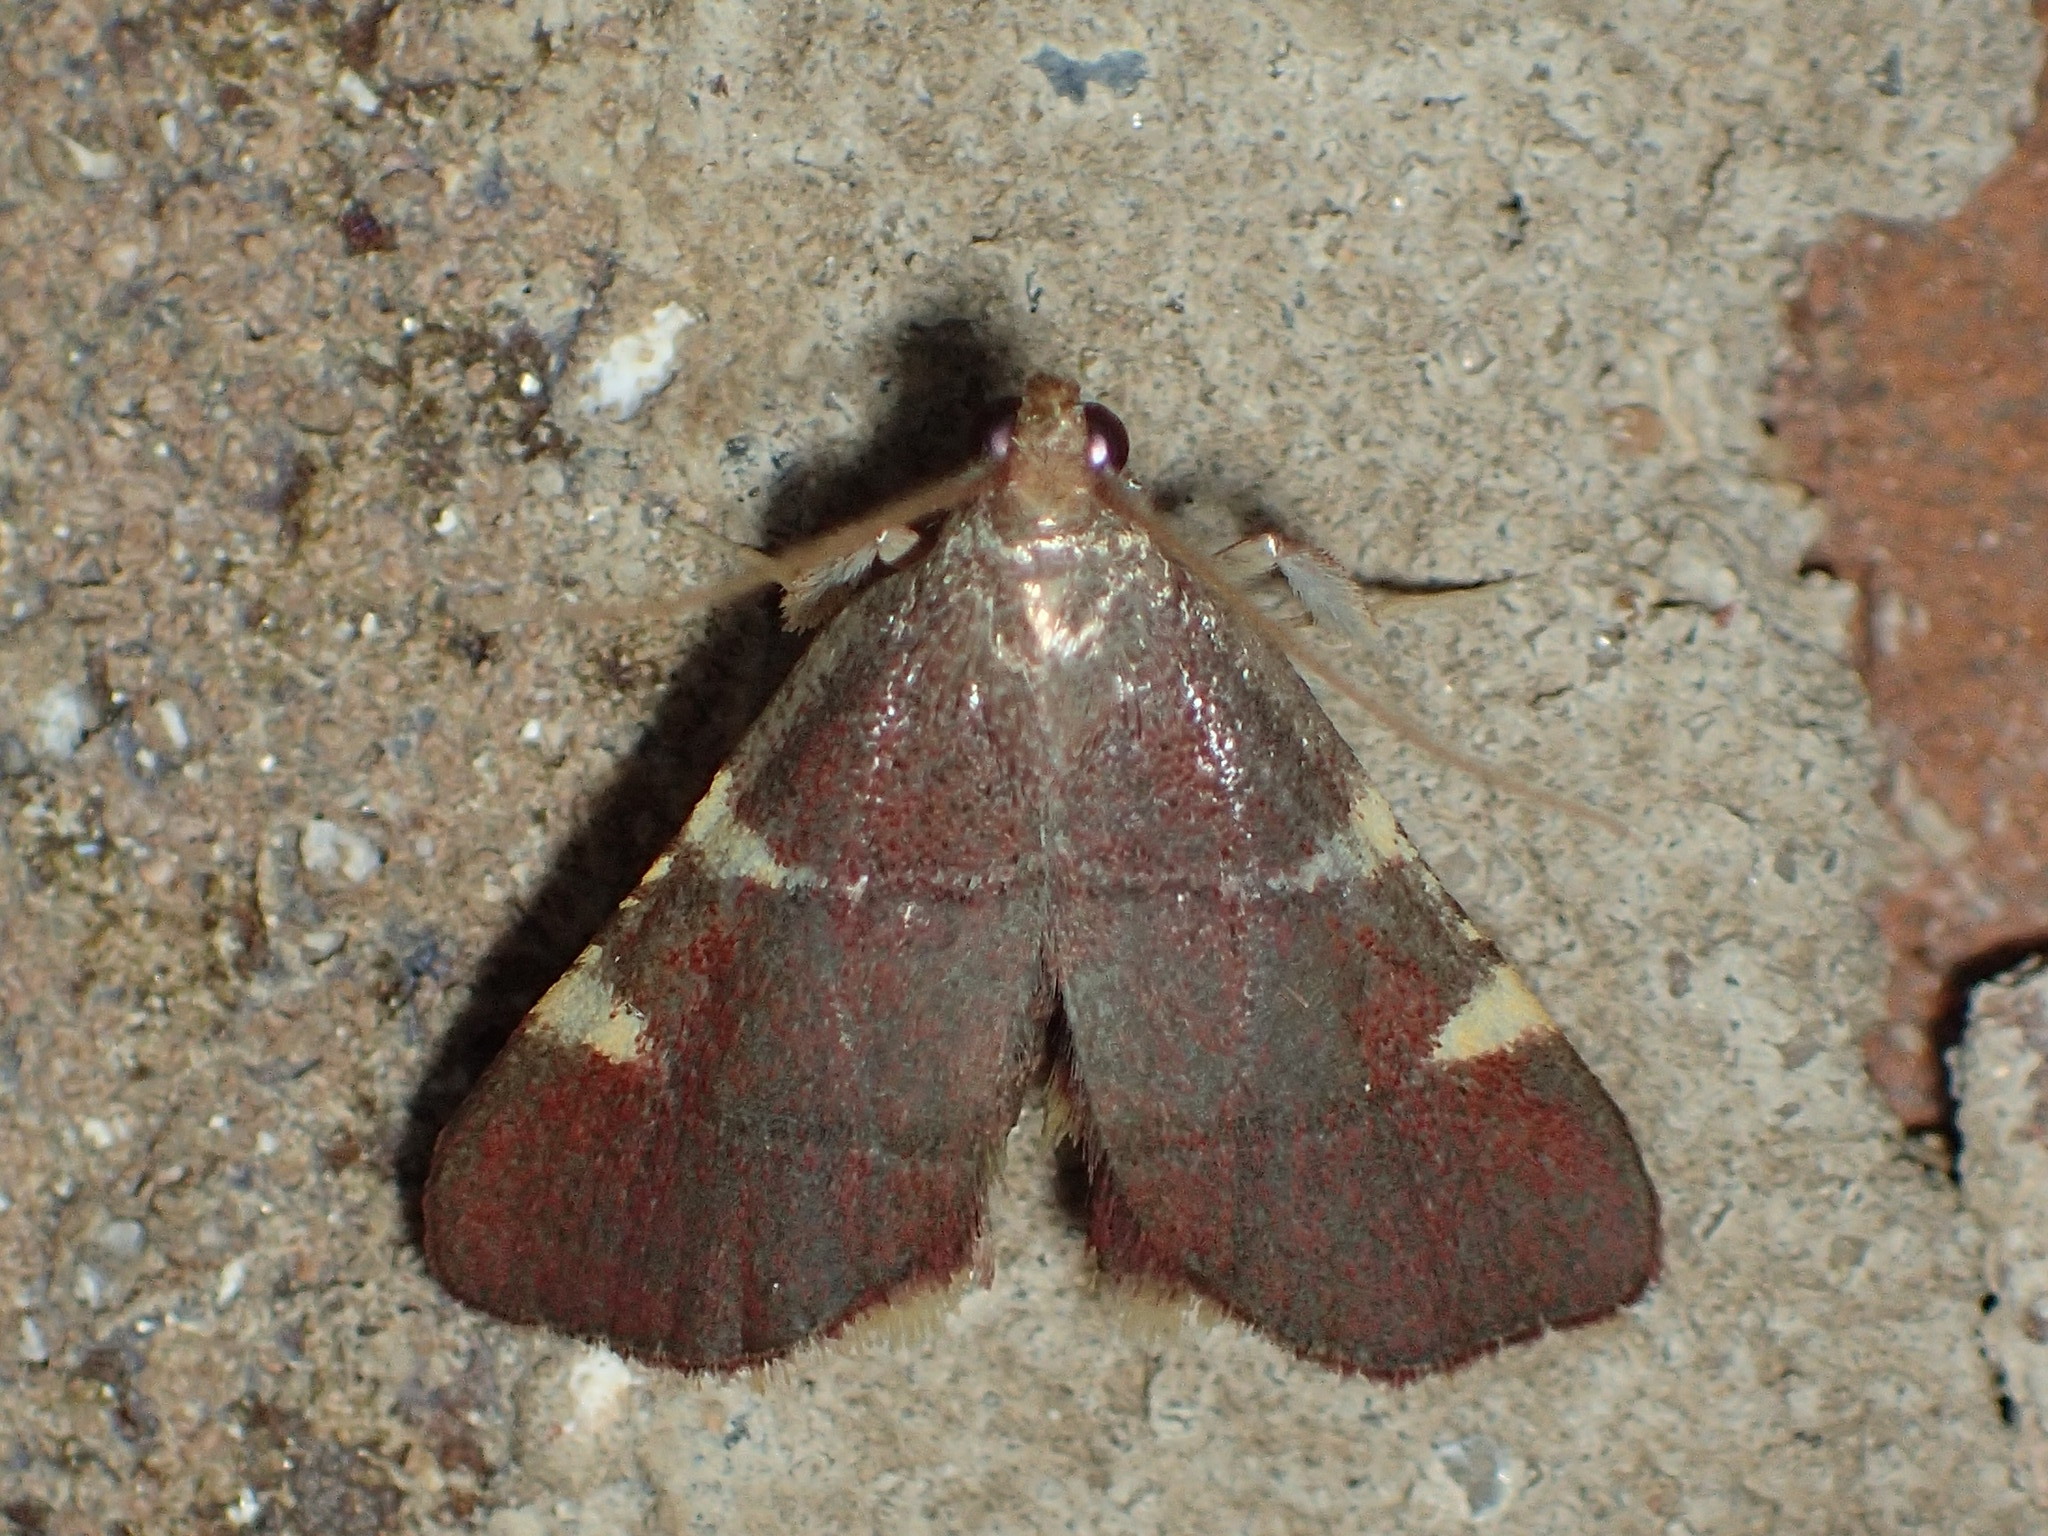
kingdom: Animalia
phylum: Arthropoda
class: Insecta
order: Lepidoptera
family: Pyralidae
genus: Hypsopygia
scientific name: Hypsopygia olinalis
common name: Yellow-fringed dolichomia moth
